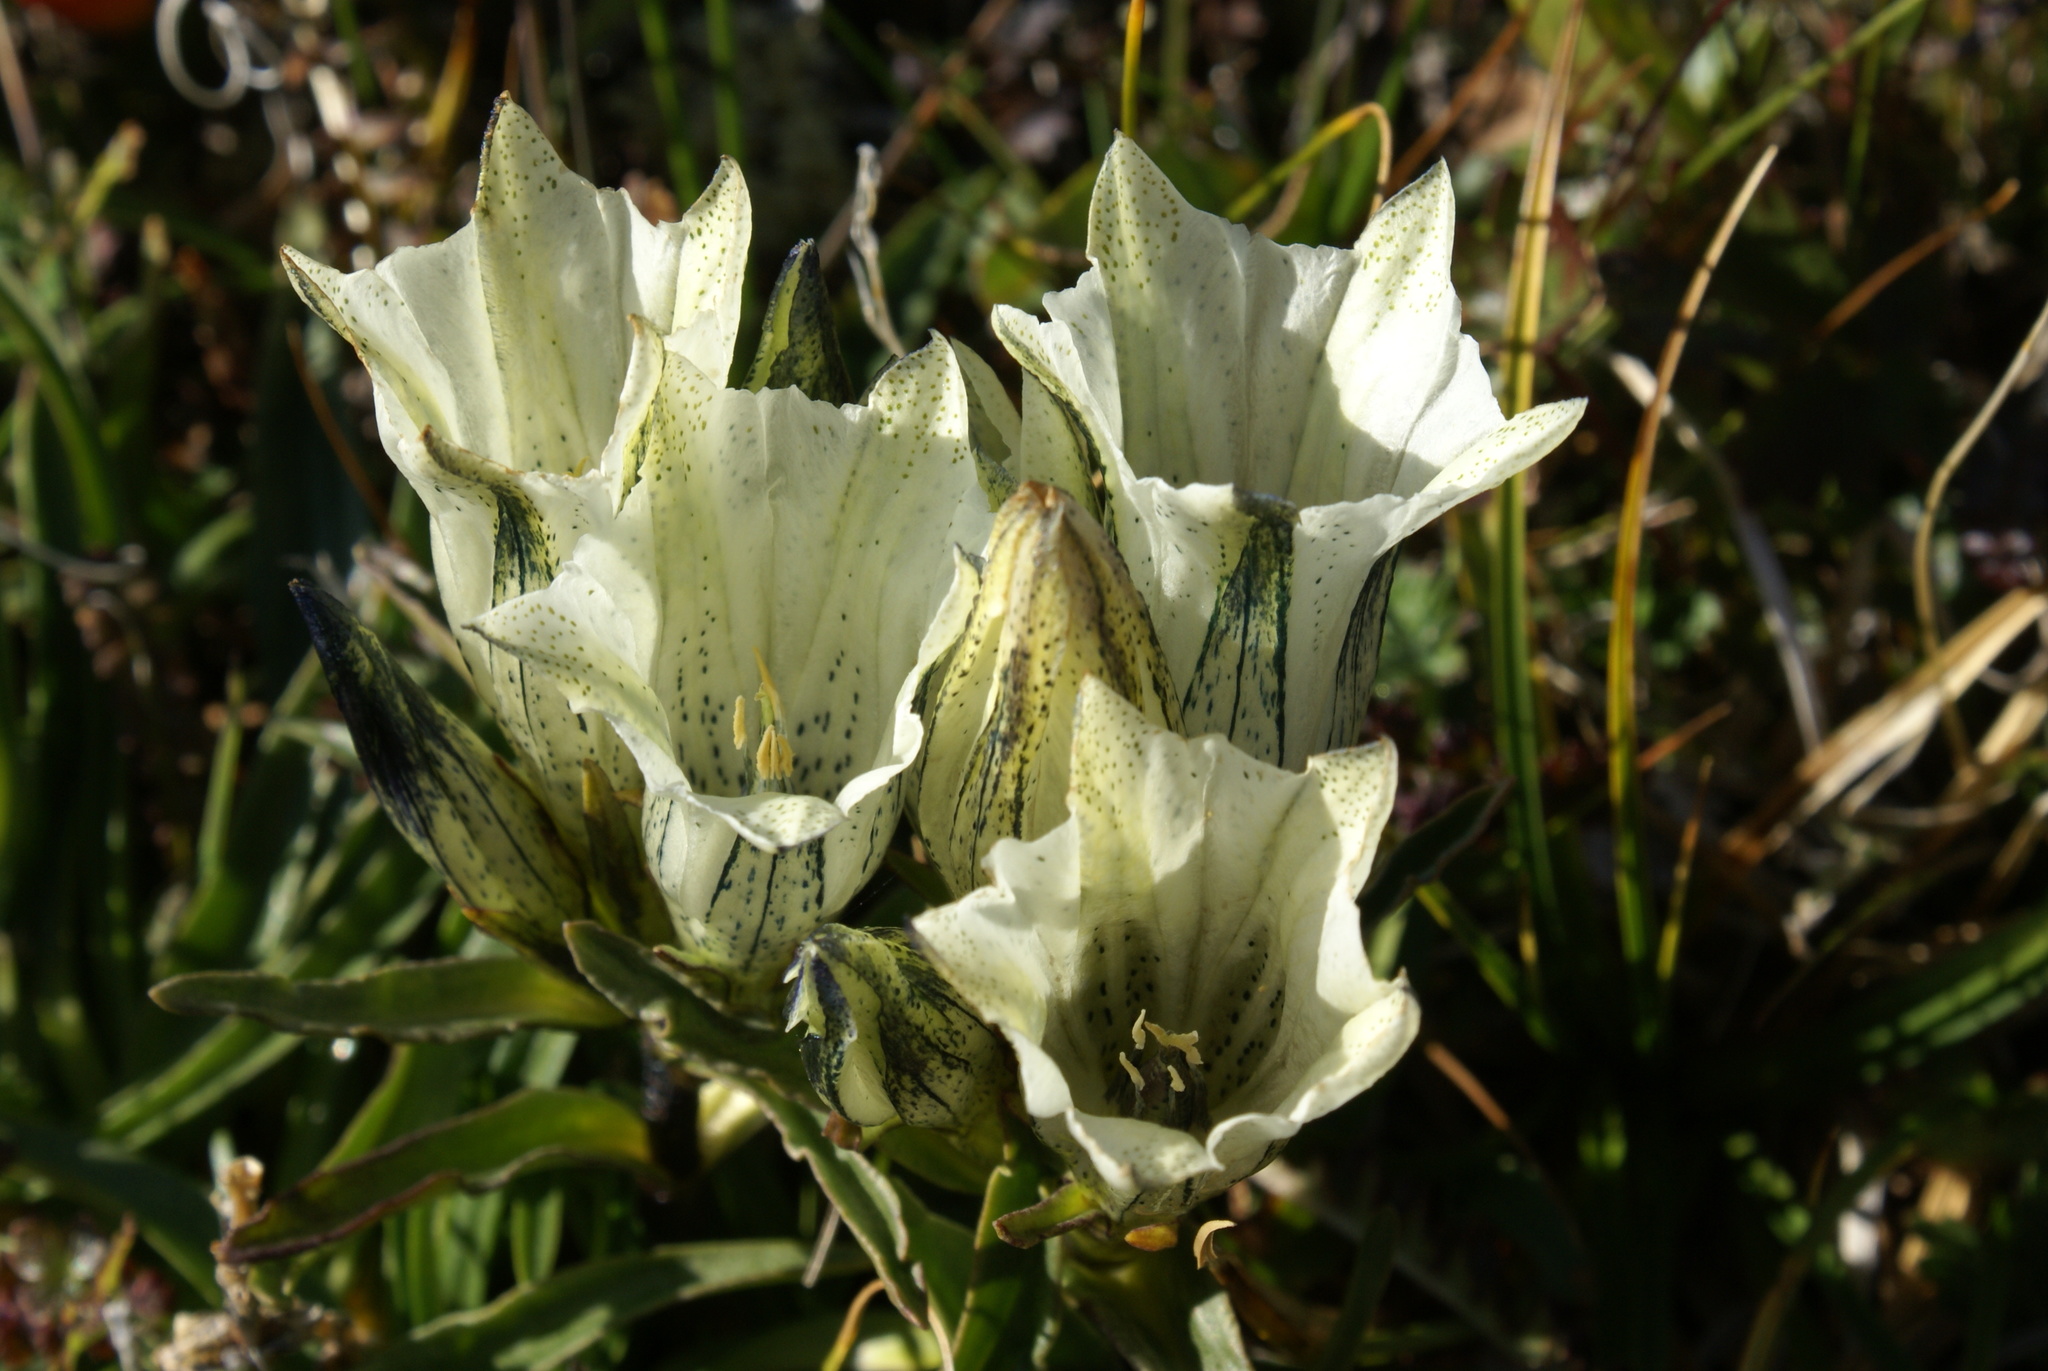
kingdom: Plantae
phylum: Tracheophyta
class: Magnoliopsida
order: Gentianales
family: Gentianaceae
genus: Gentiana
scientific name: Gentiana algida
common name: Arctic gentian
